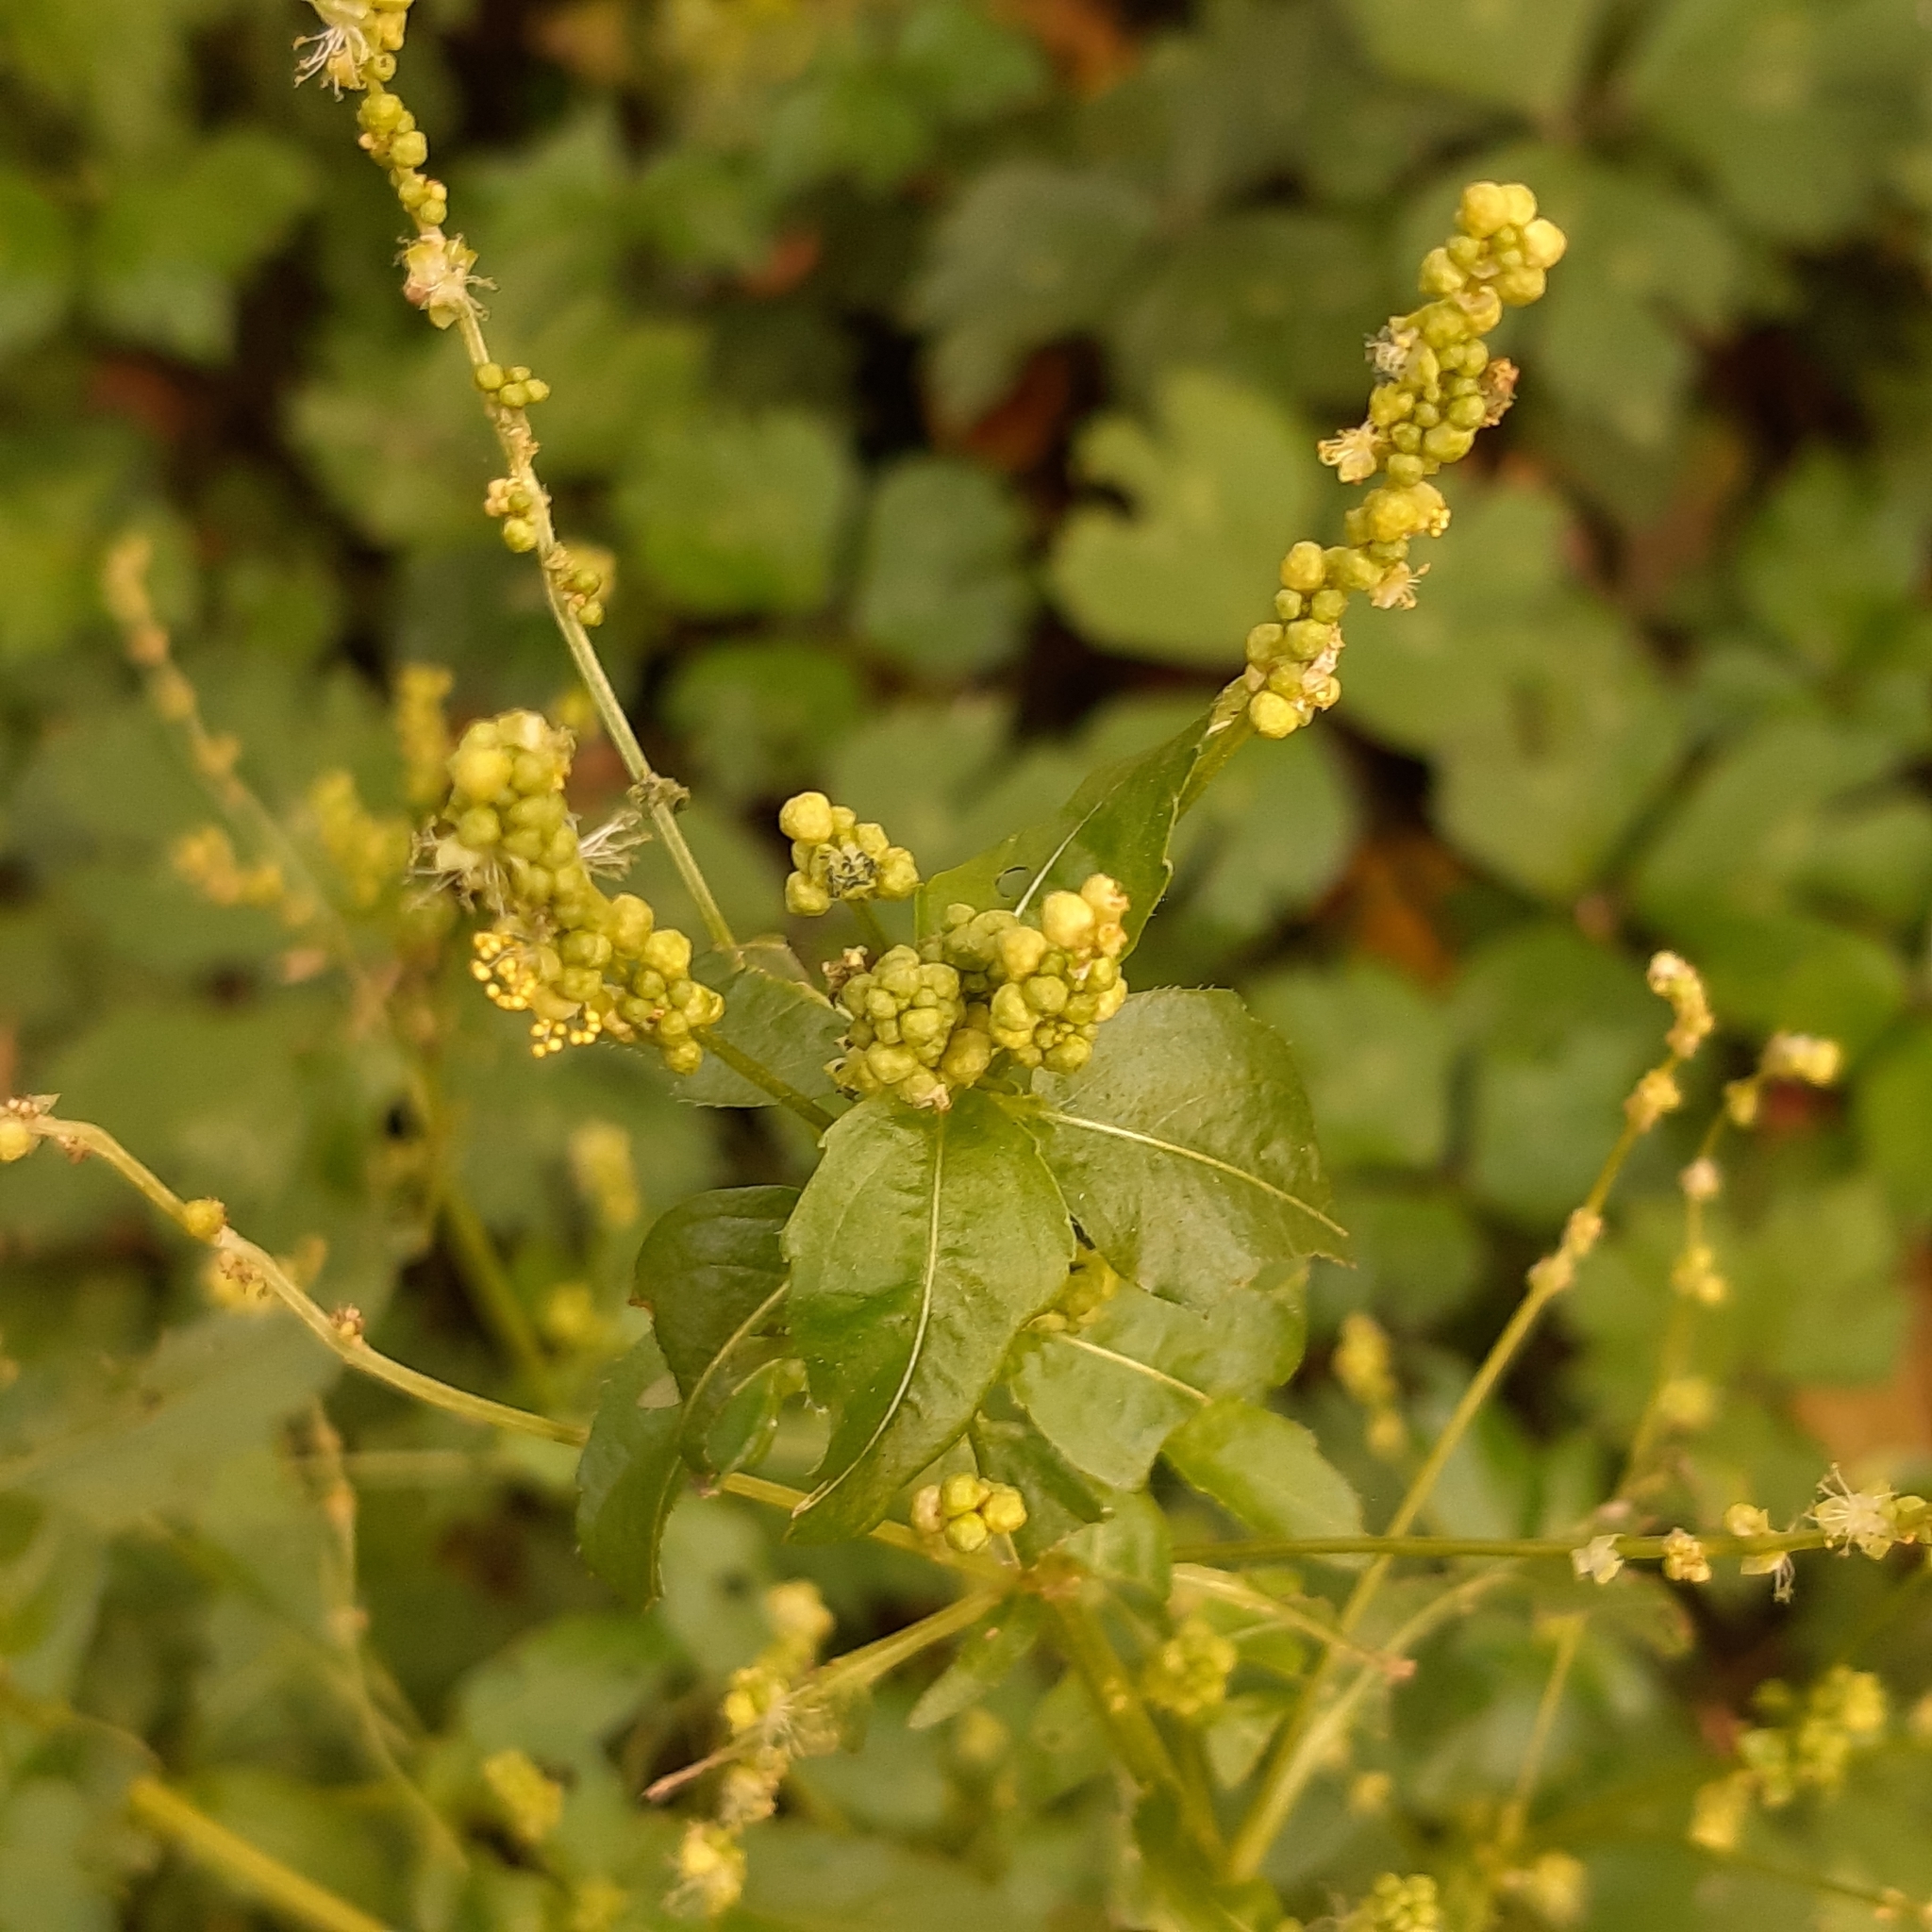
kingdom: Plantae
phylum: Tracheophyta
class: Magnoliopsida
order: Malpighiales
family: Euphorbiaceae
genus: Mercurialis
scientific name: Mercurialis annua
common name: Annual mercury
